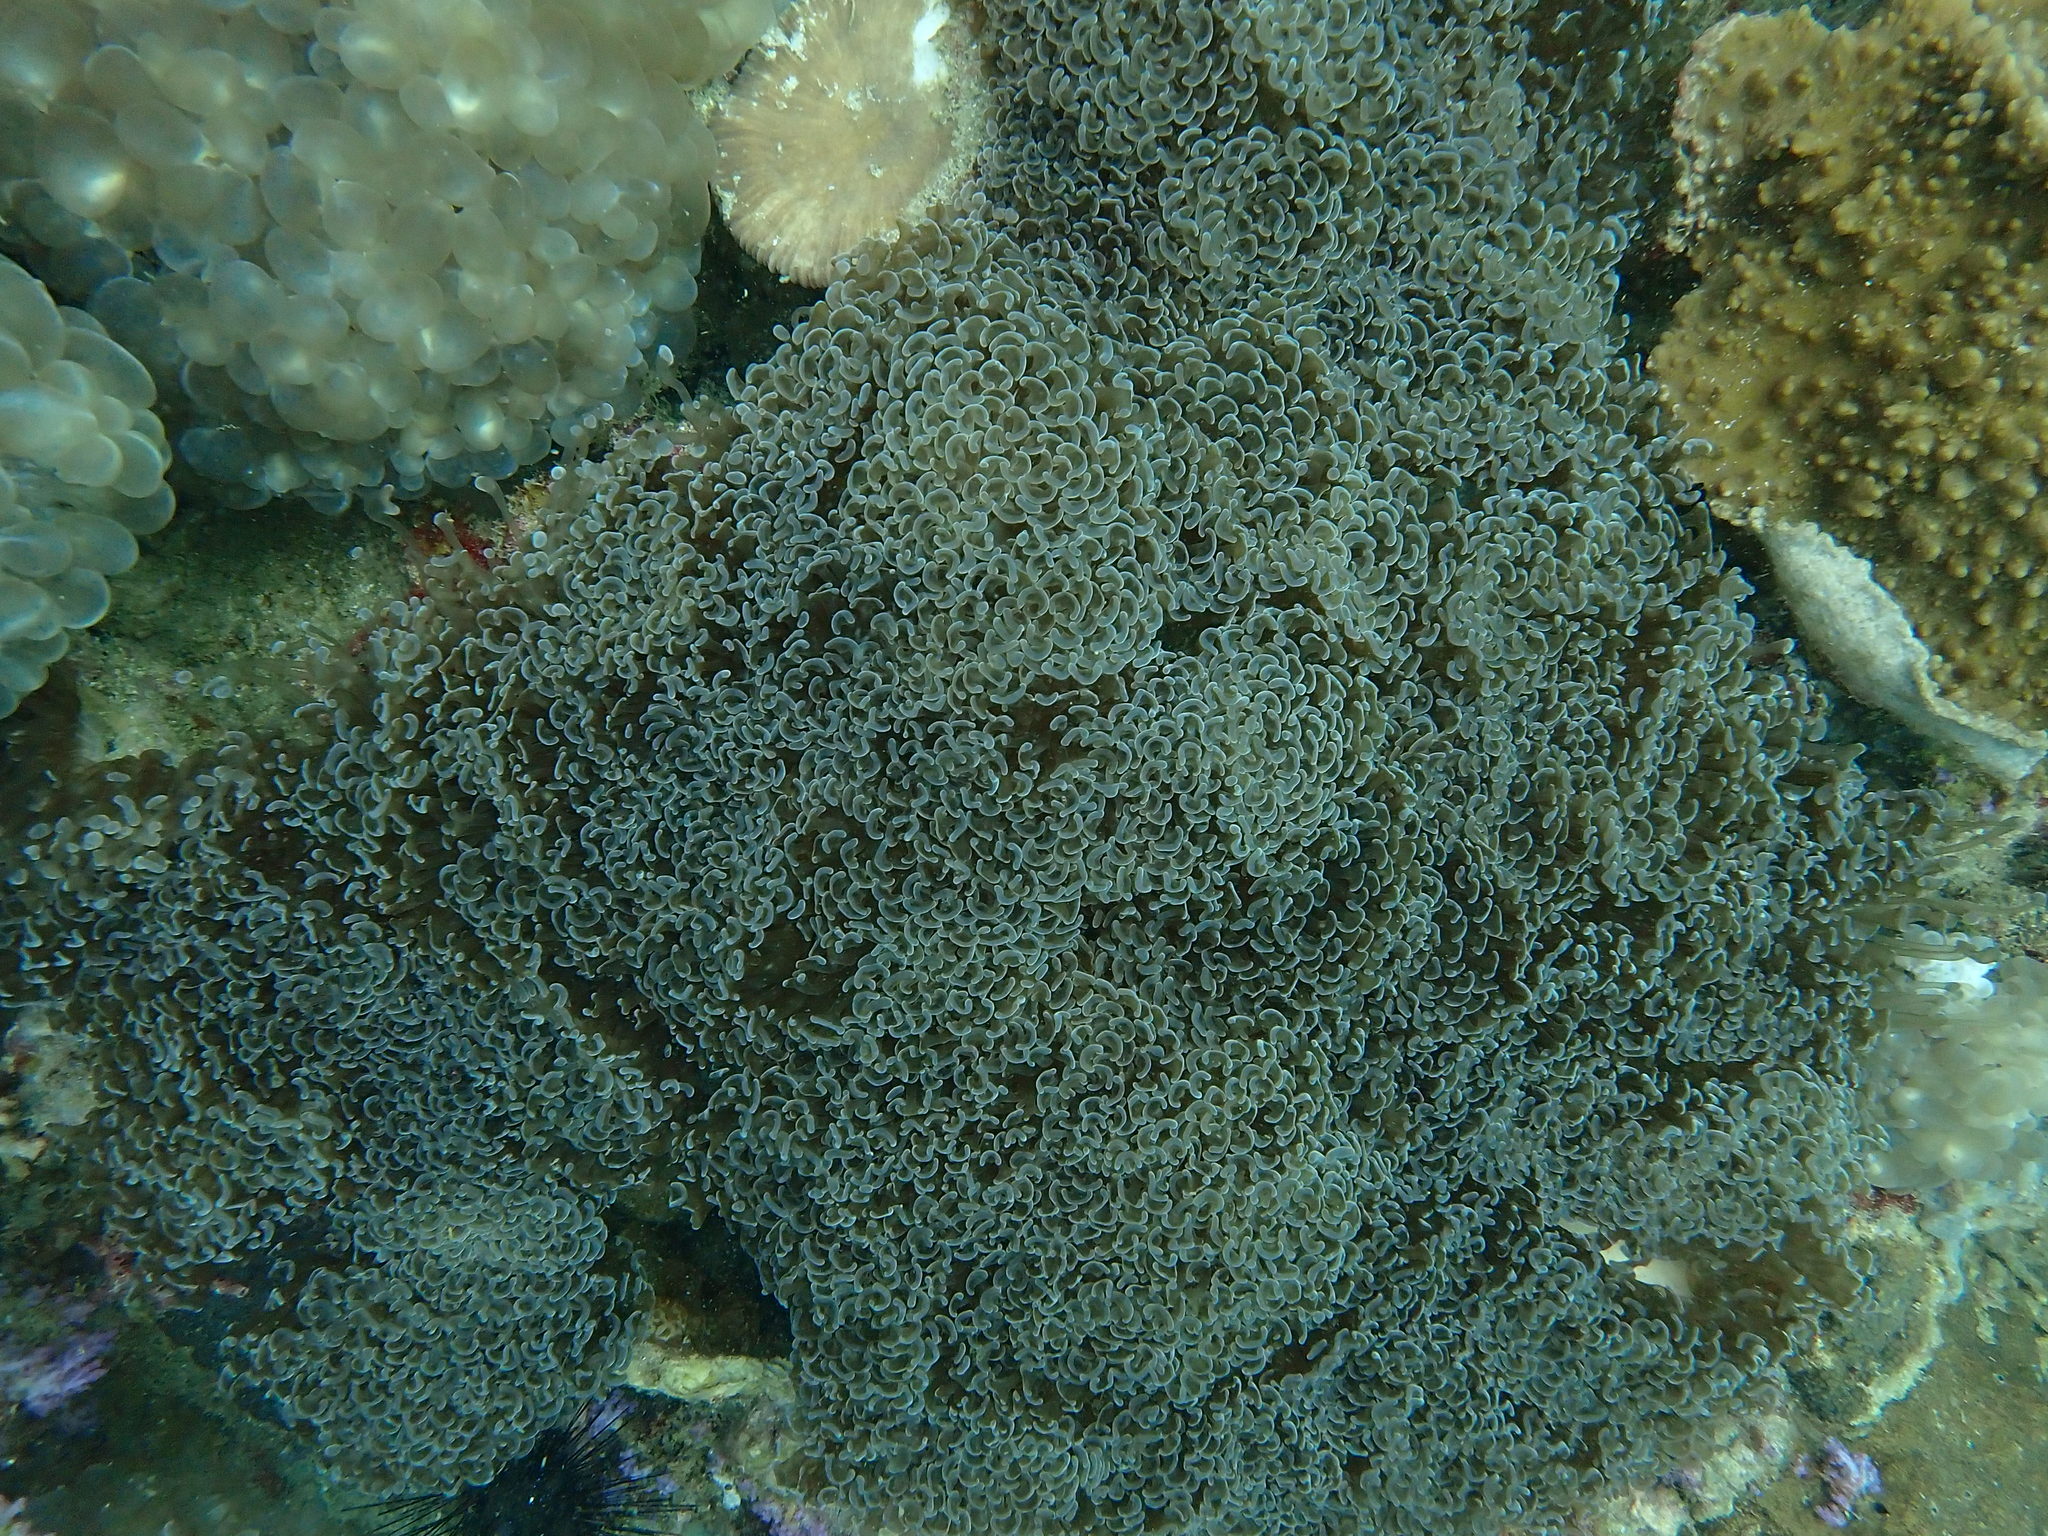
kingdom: Animalia
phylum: Cnidaria
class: Anthozoa
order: Scleractinia
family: Euphylliidae
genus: Fimbriaphyllia
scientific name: Fimbriaphyllia ancora
